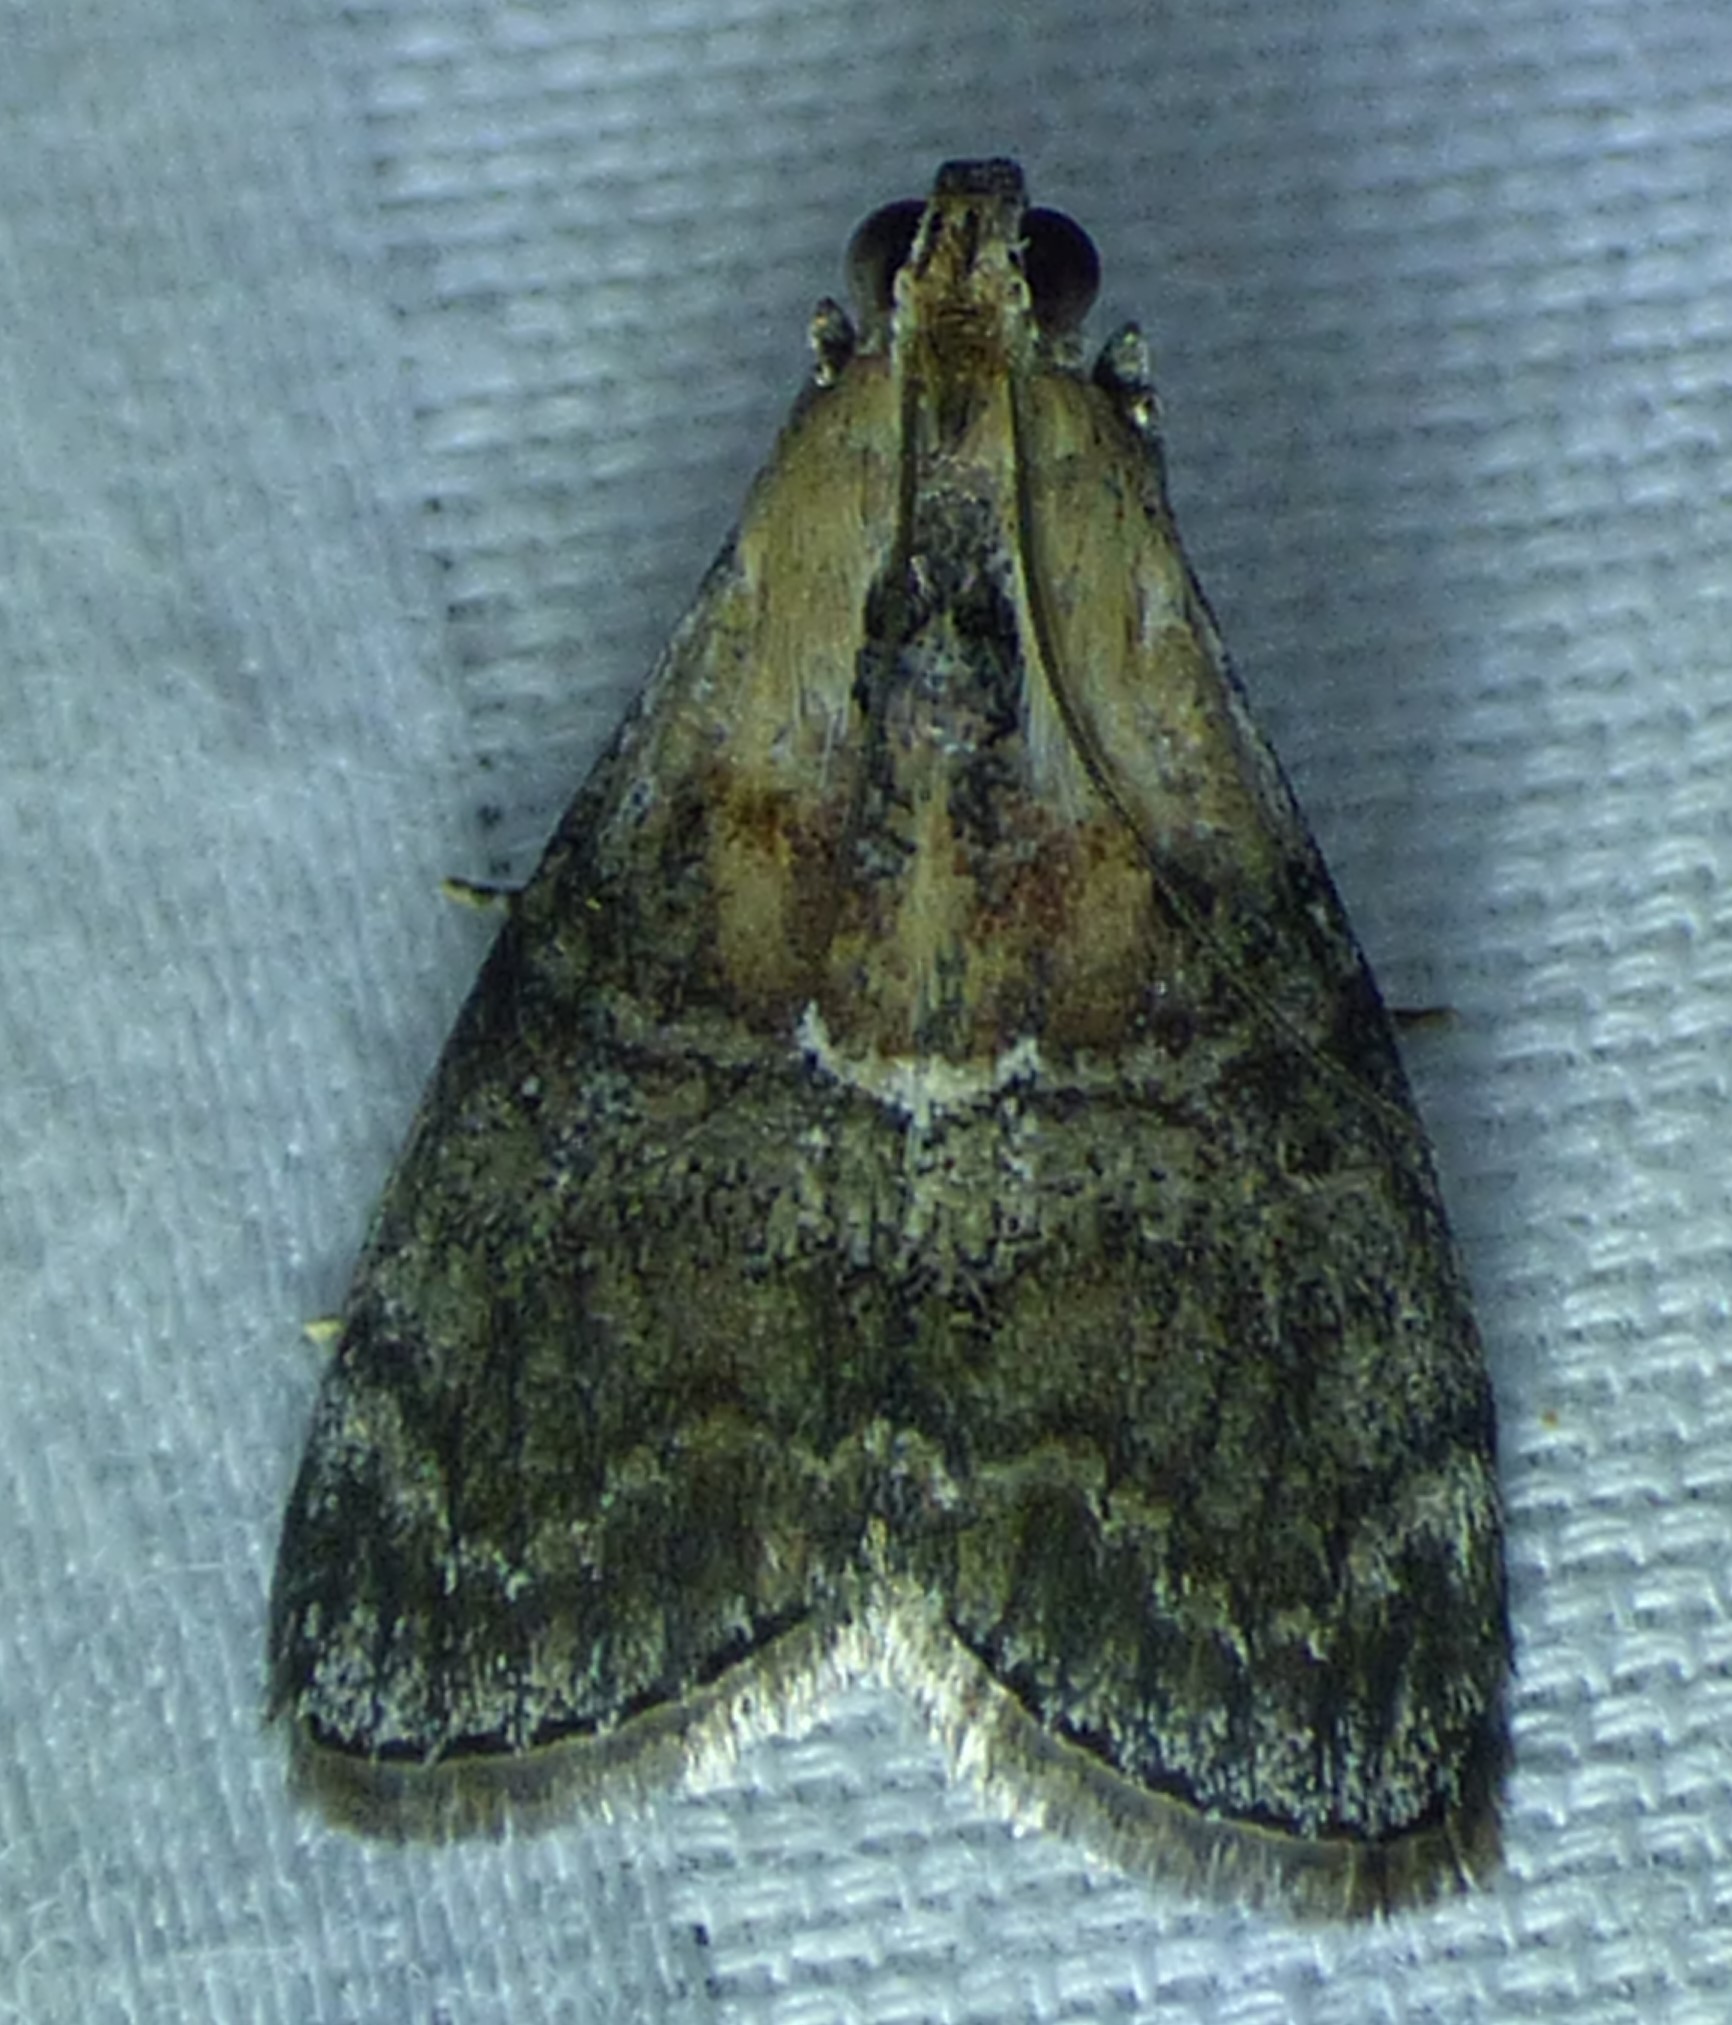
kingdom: Animalia
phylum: Arthropoda
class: Insecta
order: Lepidoptera
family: Pyralidae
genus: Pococera
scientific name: Pococera expandens
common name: Striped oak webworm moth
